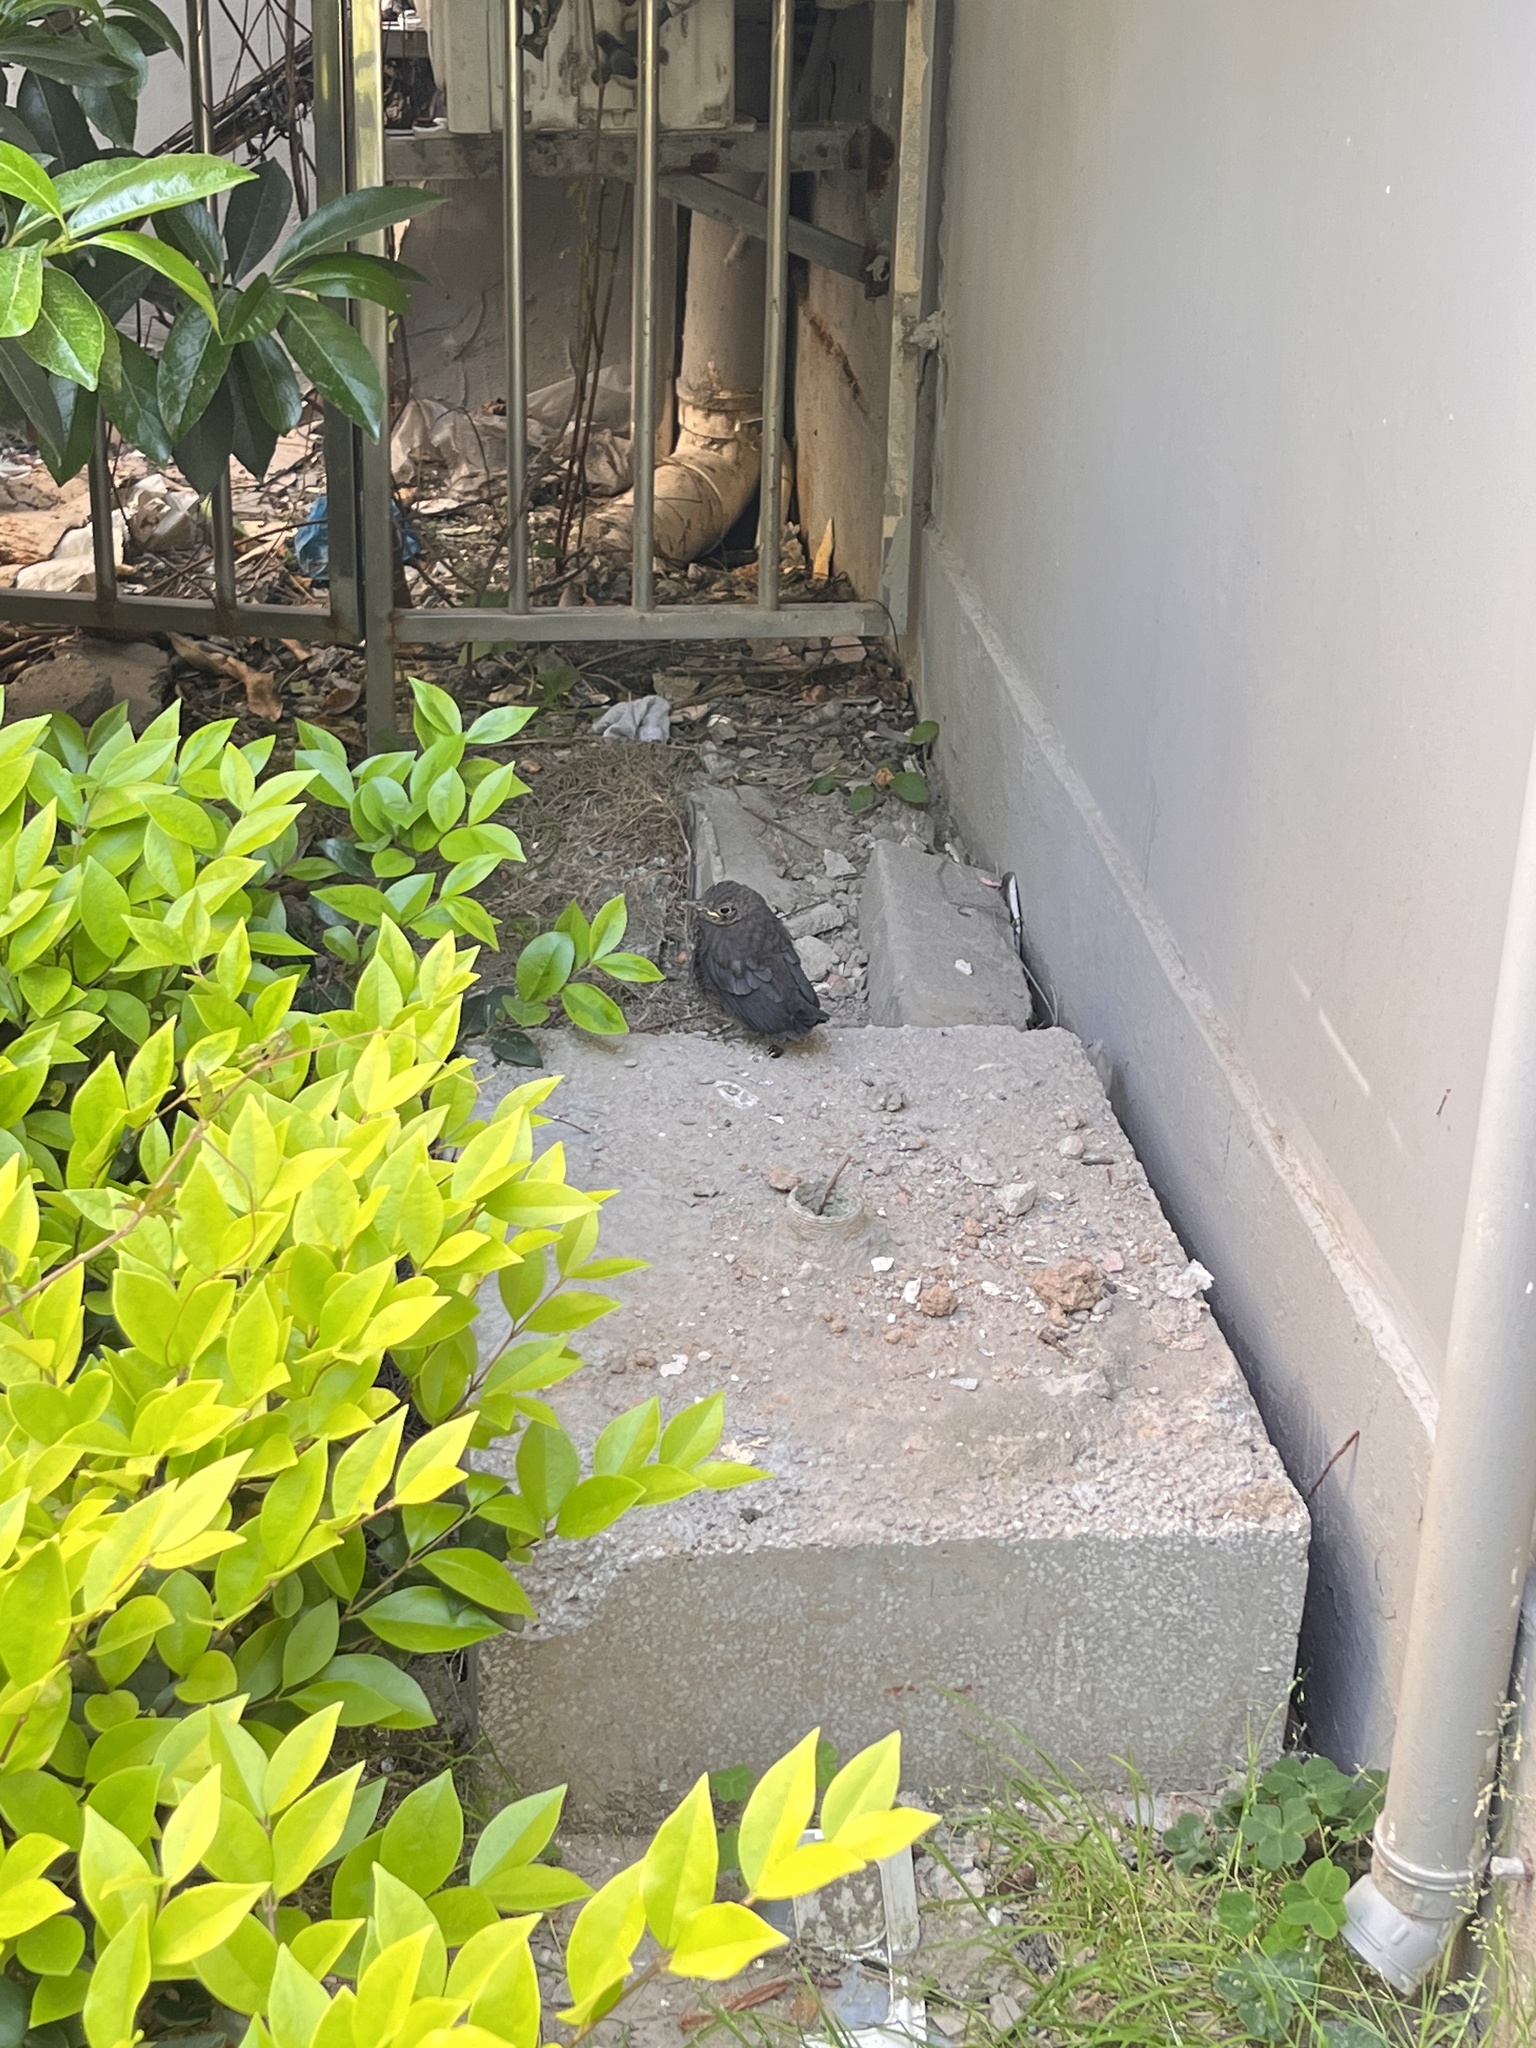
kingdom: Animalia
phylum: Chordata
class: Aves
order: Passeriformes
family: Turdidae
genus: Turdus
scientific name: Turdus mandarinus
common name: Chinese blackbird
